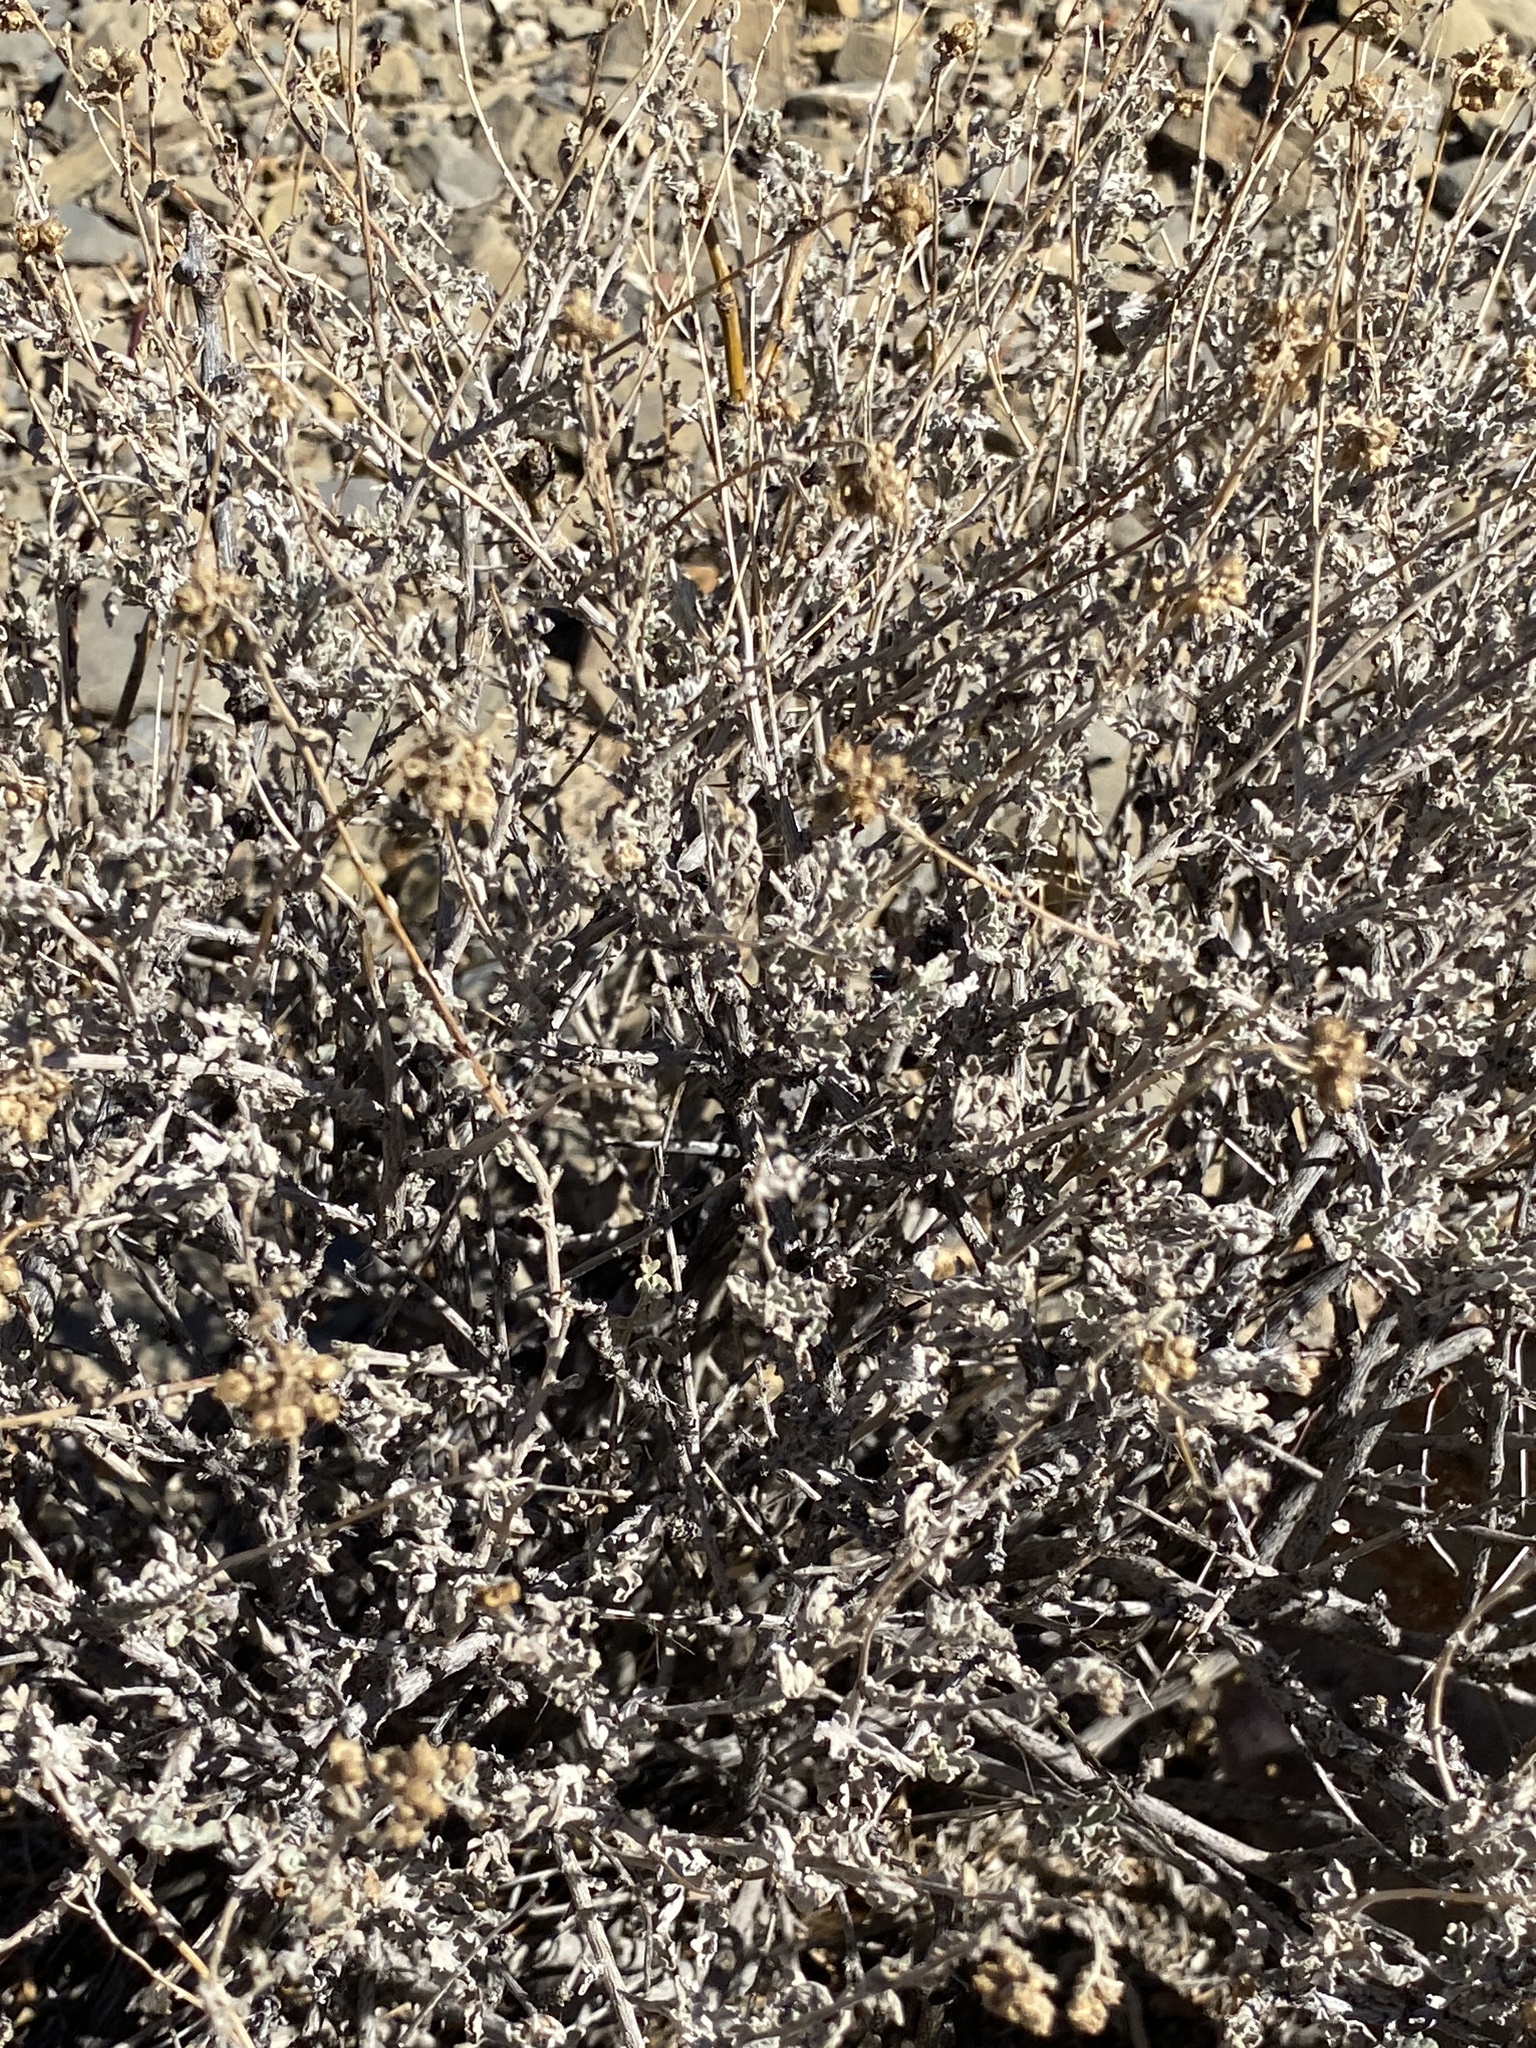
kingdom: Plantae
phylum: Tracheophyta
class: Magnoliopsida
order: Asterales
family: Asteraceae
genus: Parthenium
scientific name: Parthenium incanum
